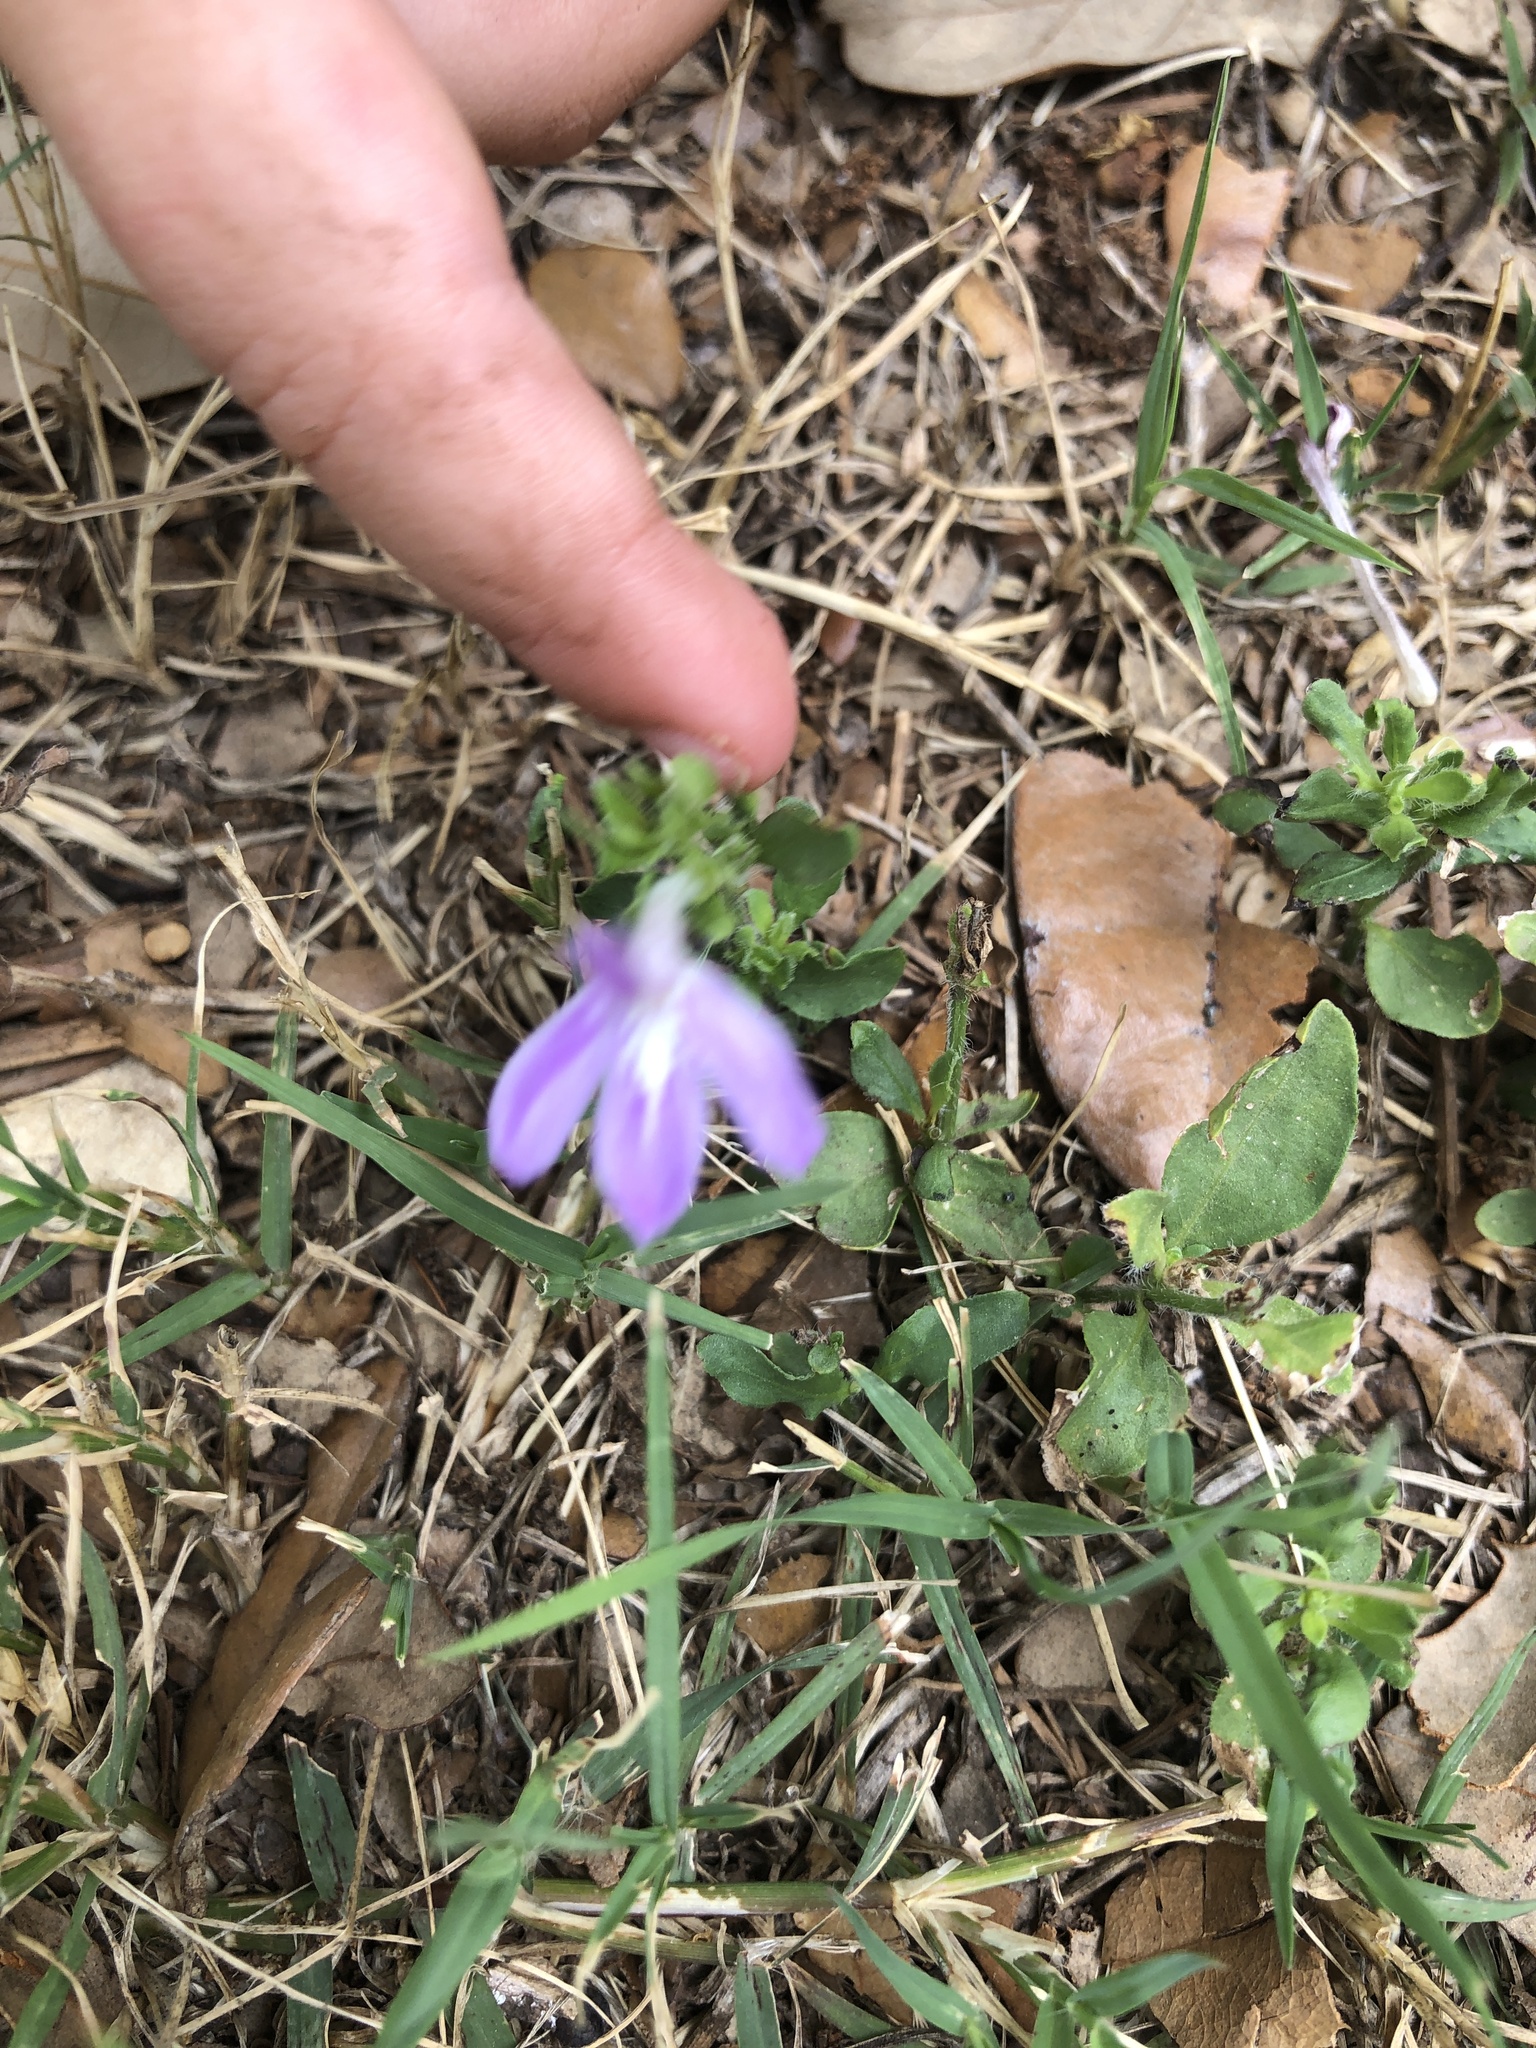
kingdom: Plantae
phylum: Tracheophyta
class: Magnoliopsida
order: Lamiales
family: Acanthaceae
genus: Justicia
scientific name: Justicia pilosella
